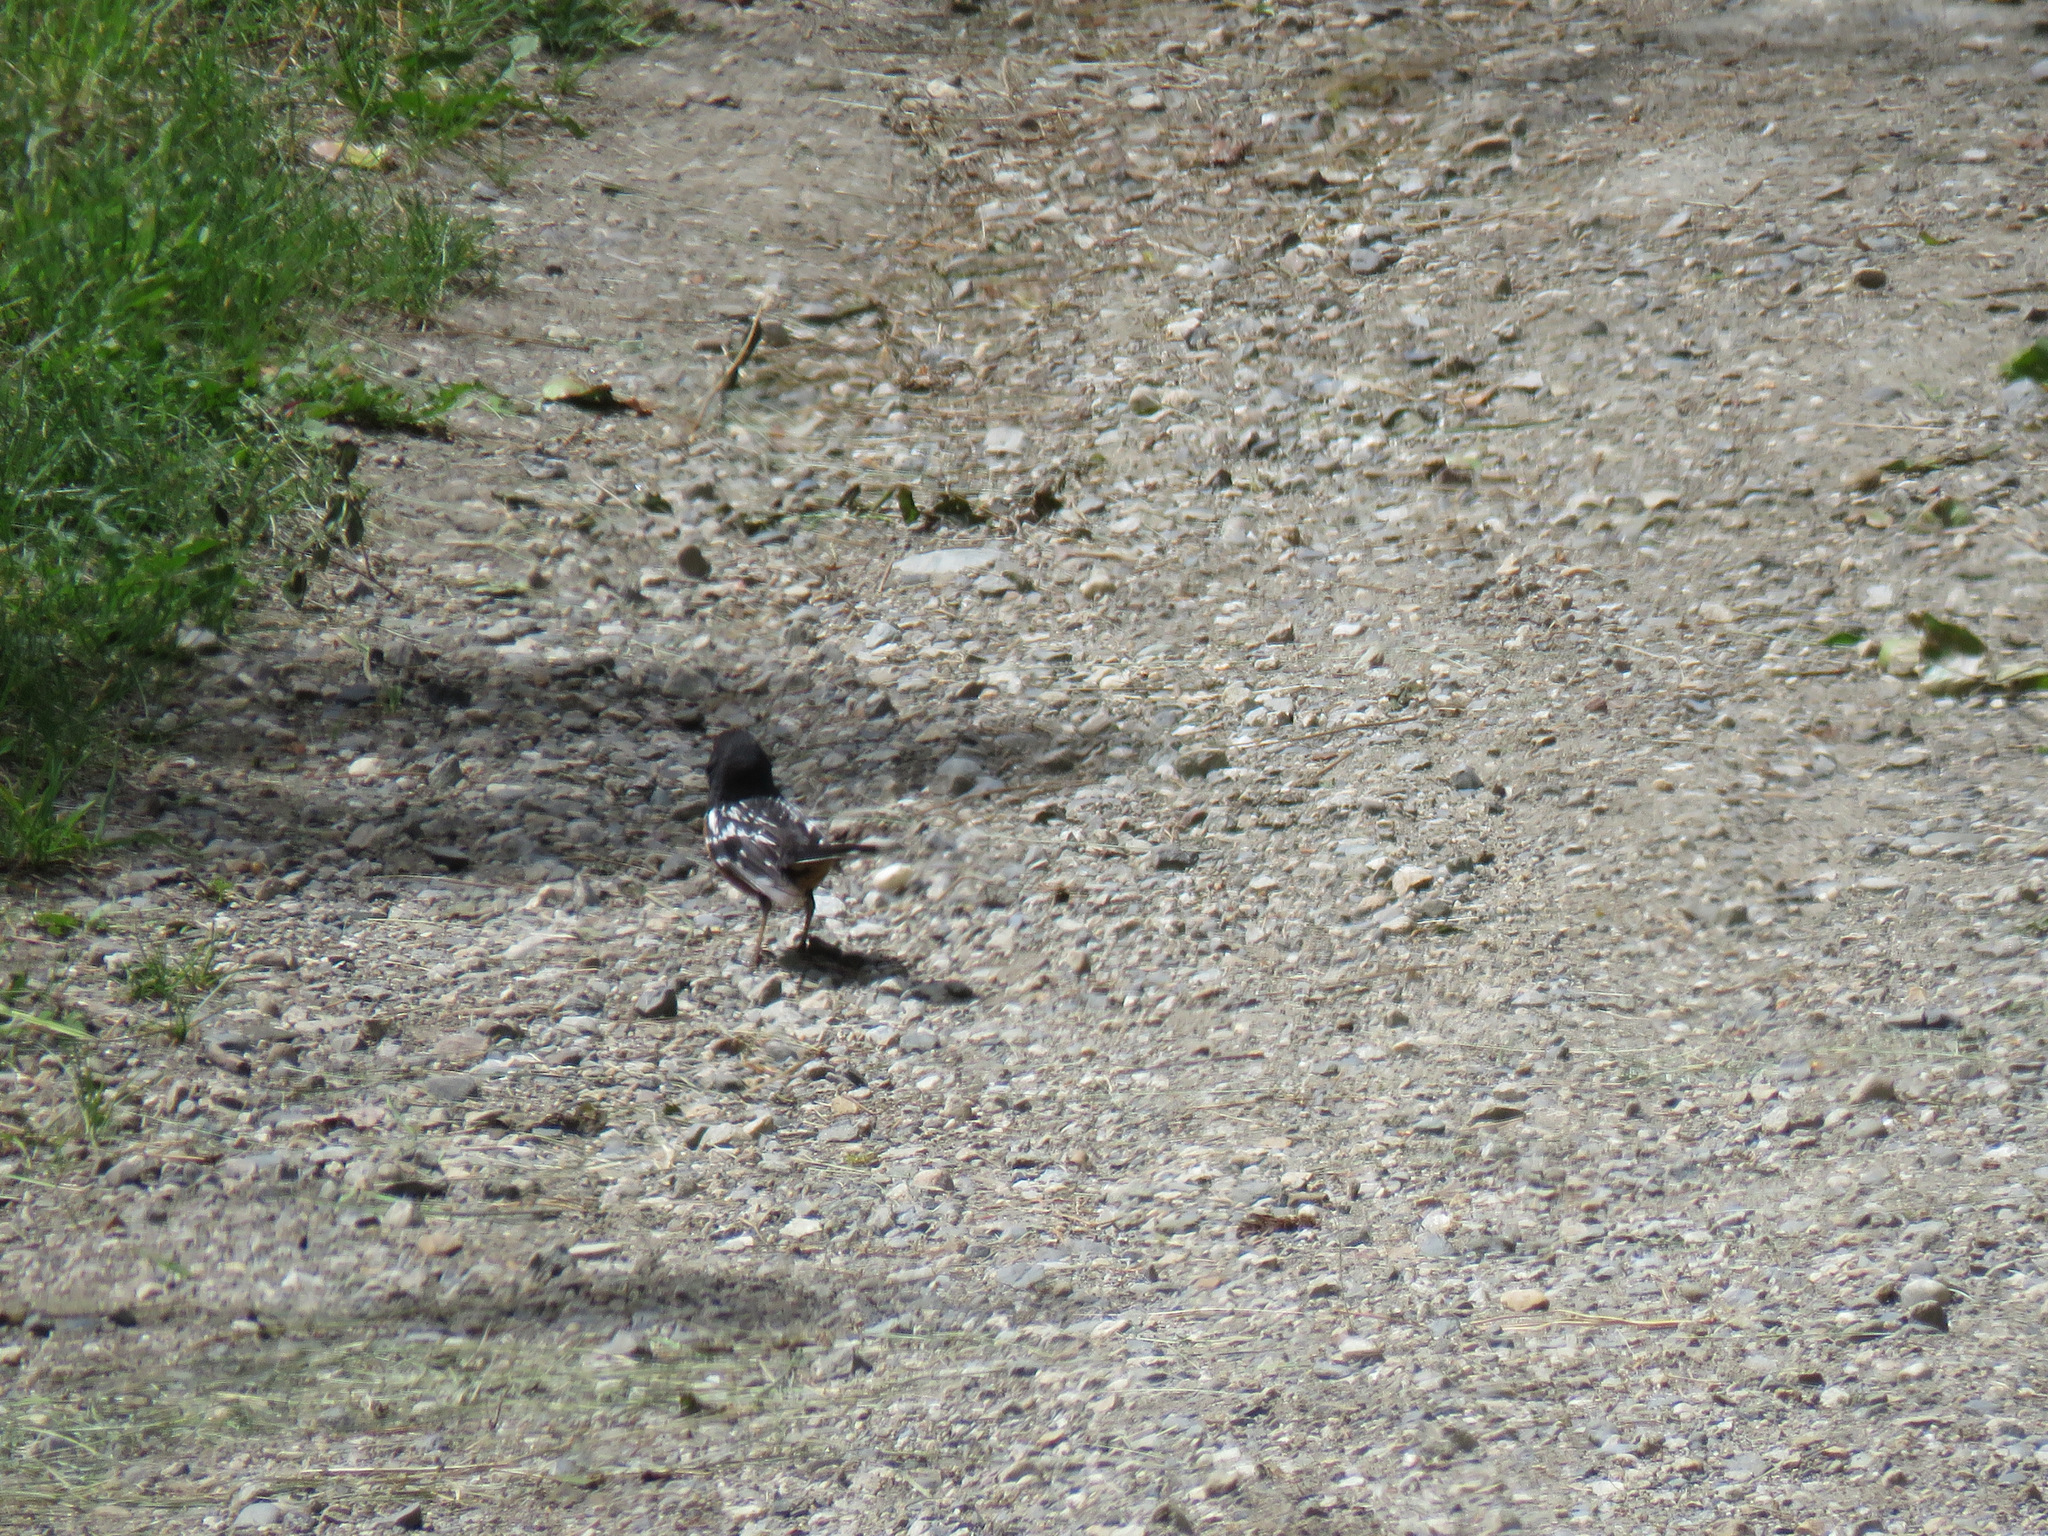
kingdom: Animalia
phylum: Chordata
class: Aves
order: Passeriformes
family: Passerellidae
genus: Pipilo
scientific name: Pipilo maculatus
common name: Spotted towhee
